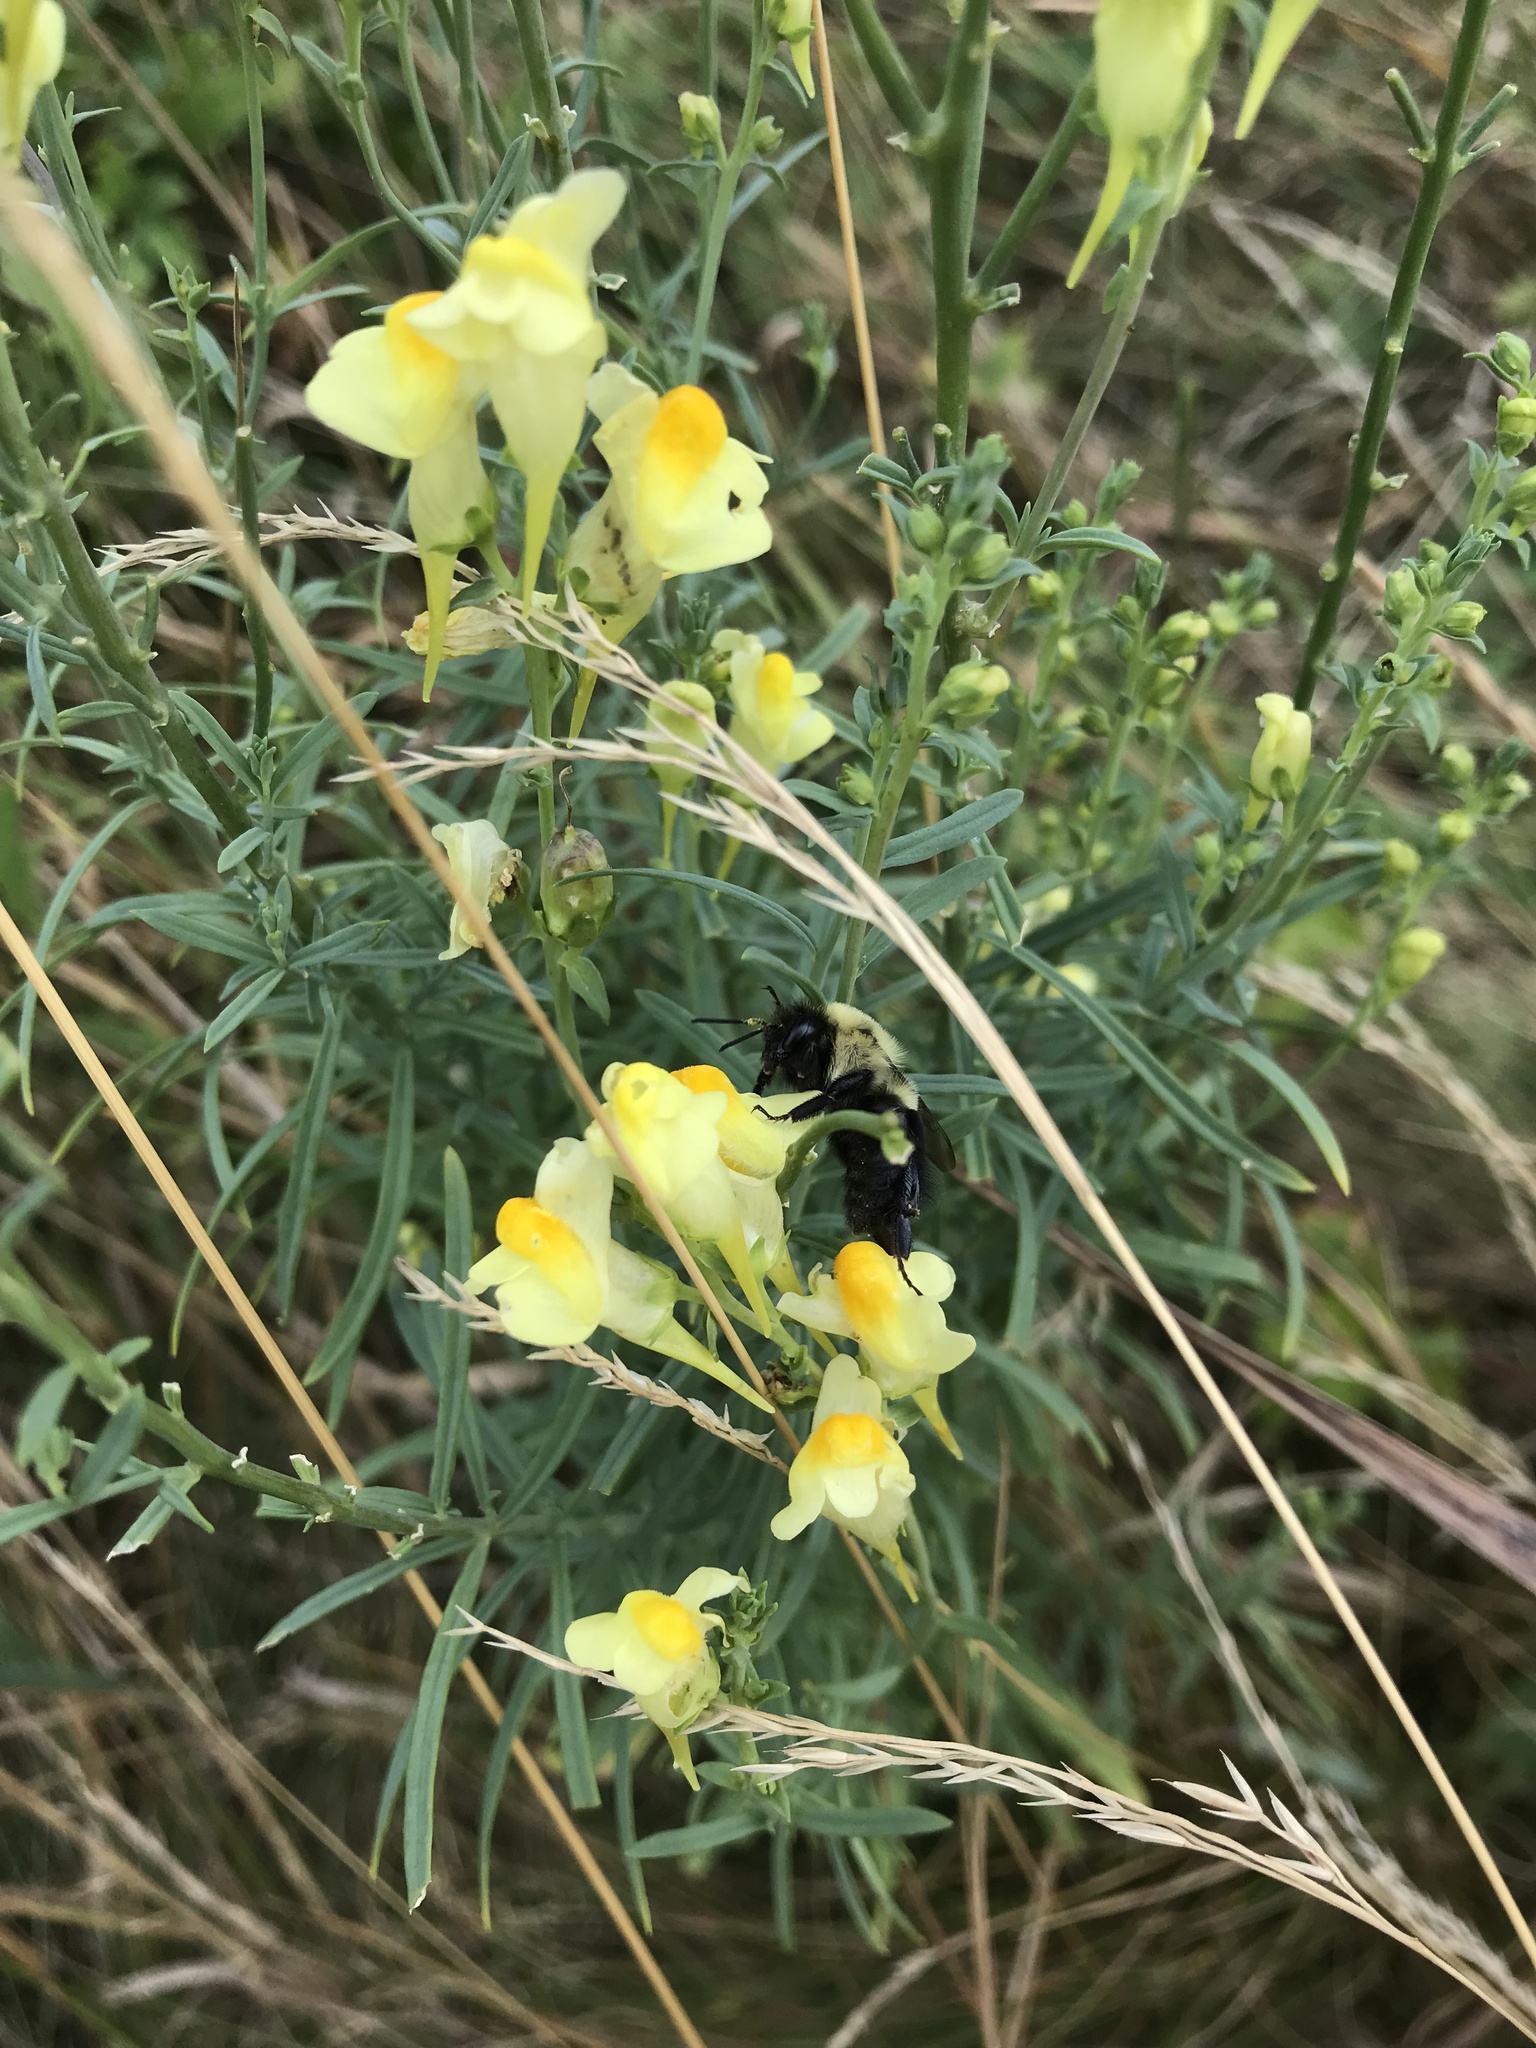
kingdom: Animalia
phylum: Arthropoda
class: Insecta
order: Hymenoptera
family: Apidae
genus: Bombus
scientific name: Bombus impatiens
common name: Common eastern bumble bee
